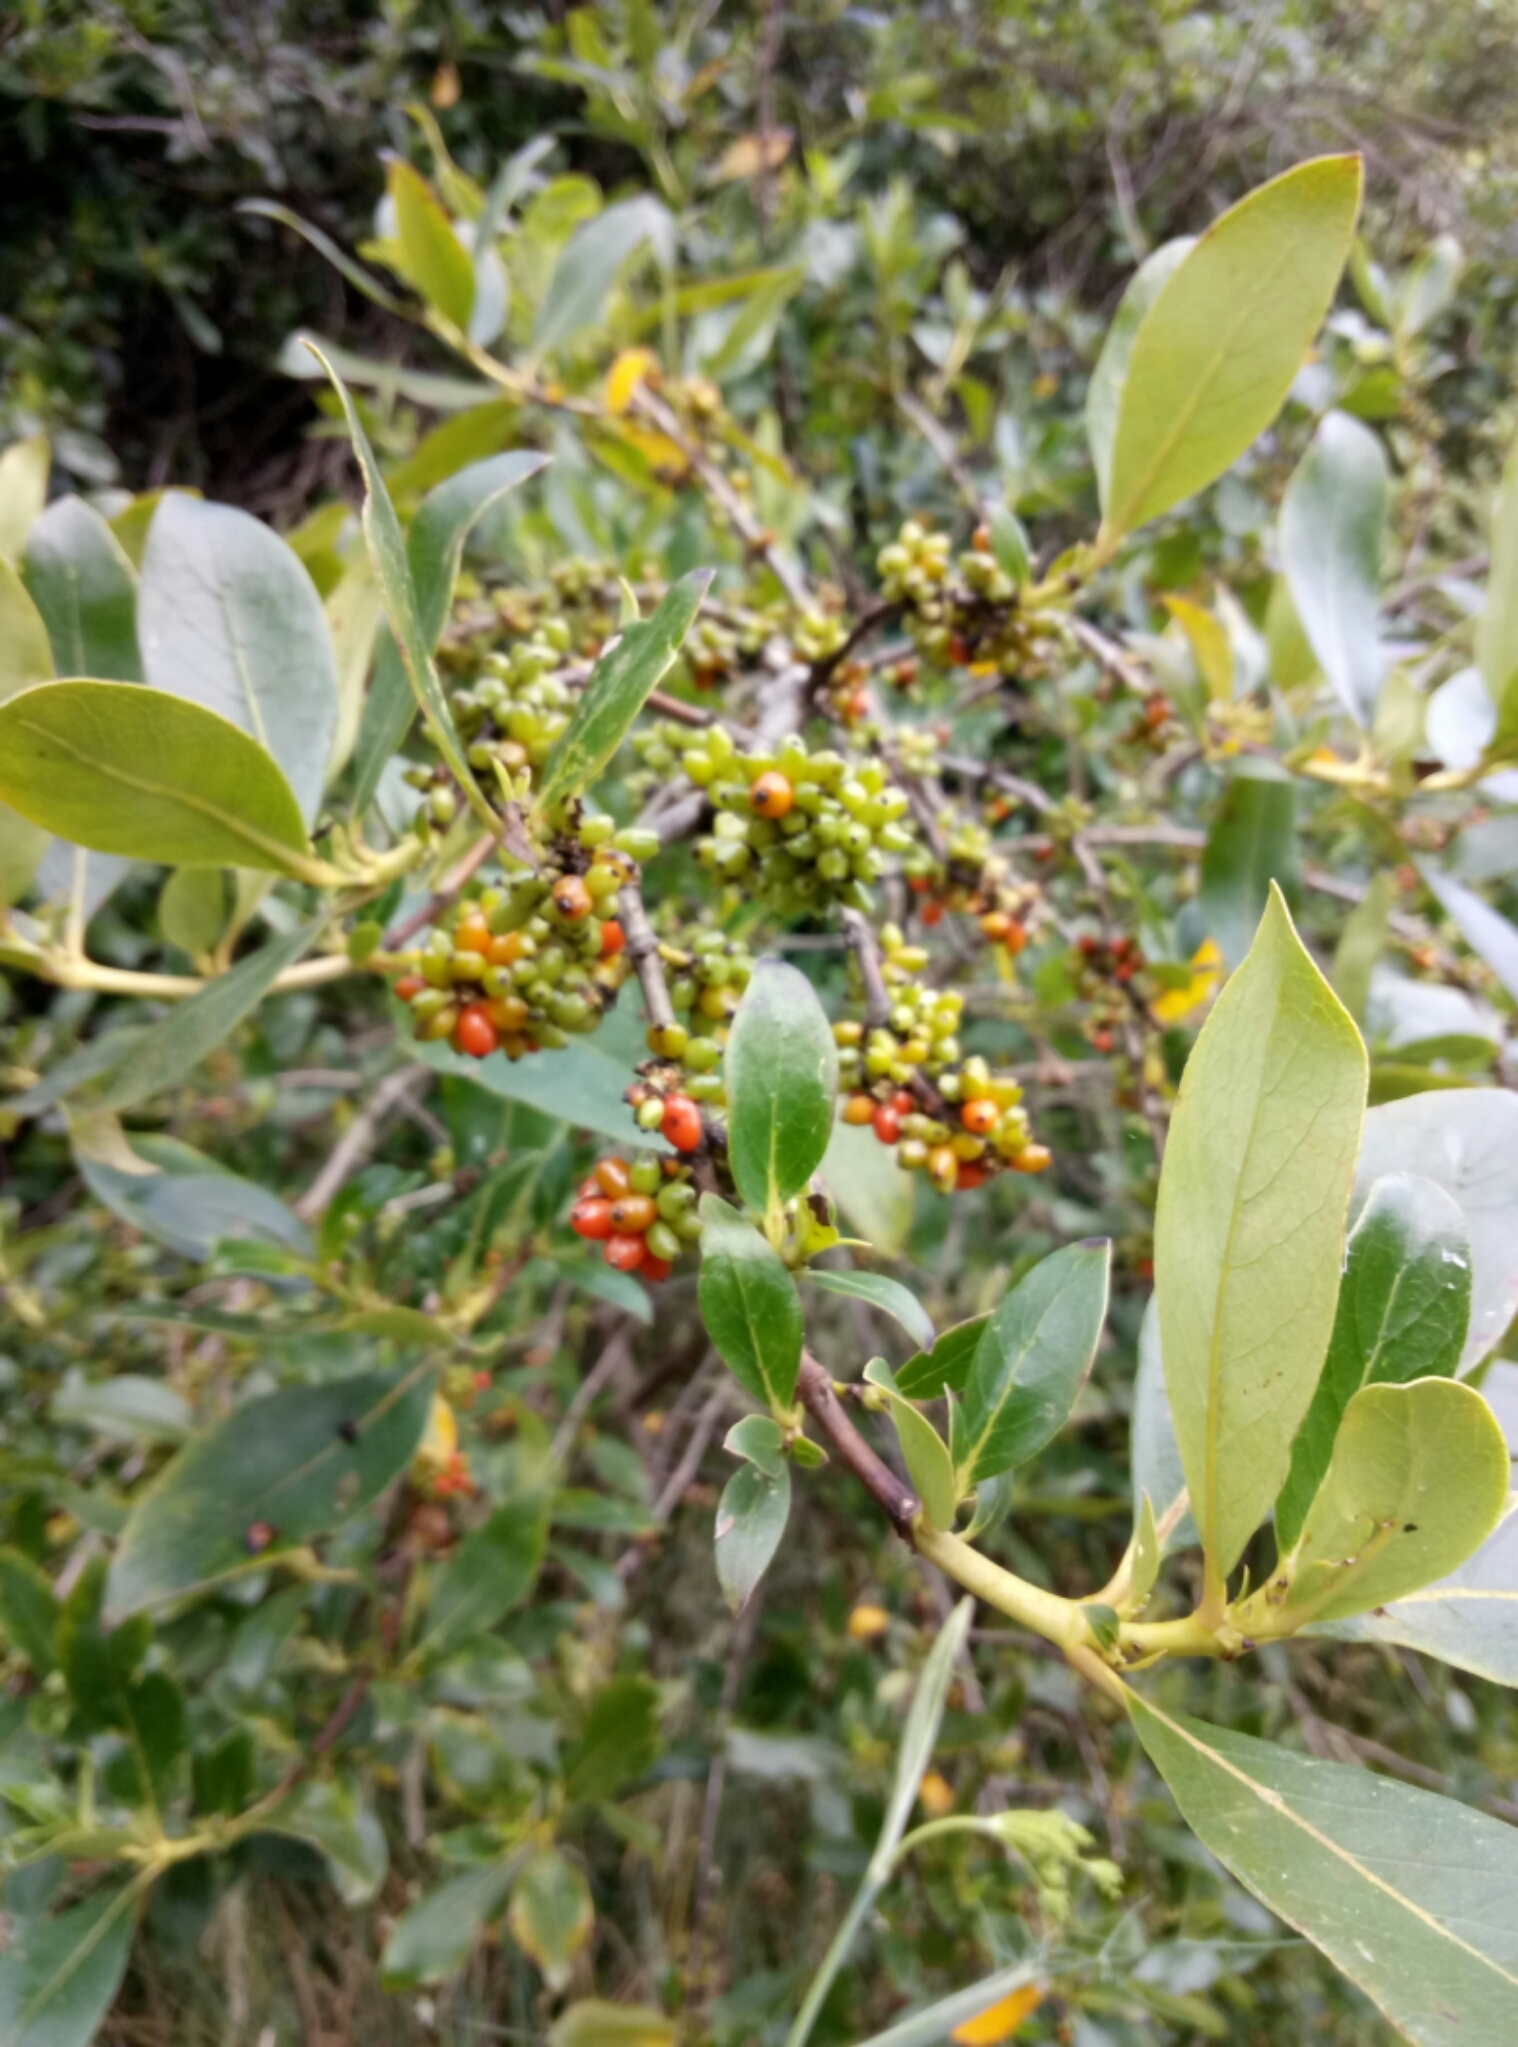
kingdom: Plantae
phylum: Tracheophyta
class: Magnoliopsida
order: Gentianales
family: Rubiaceae
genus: Coprosma
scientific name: Coprosma robusta
